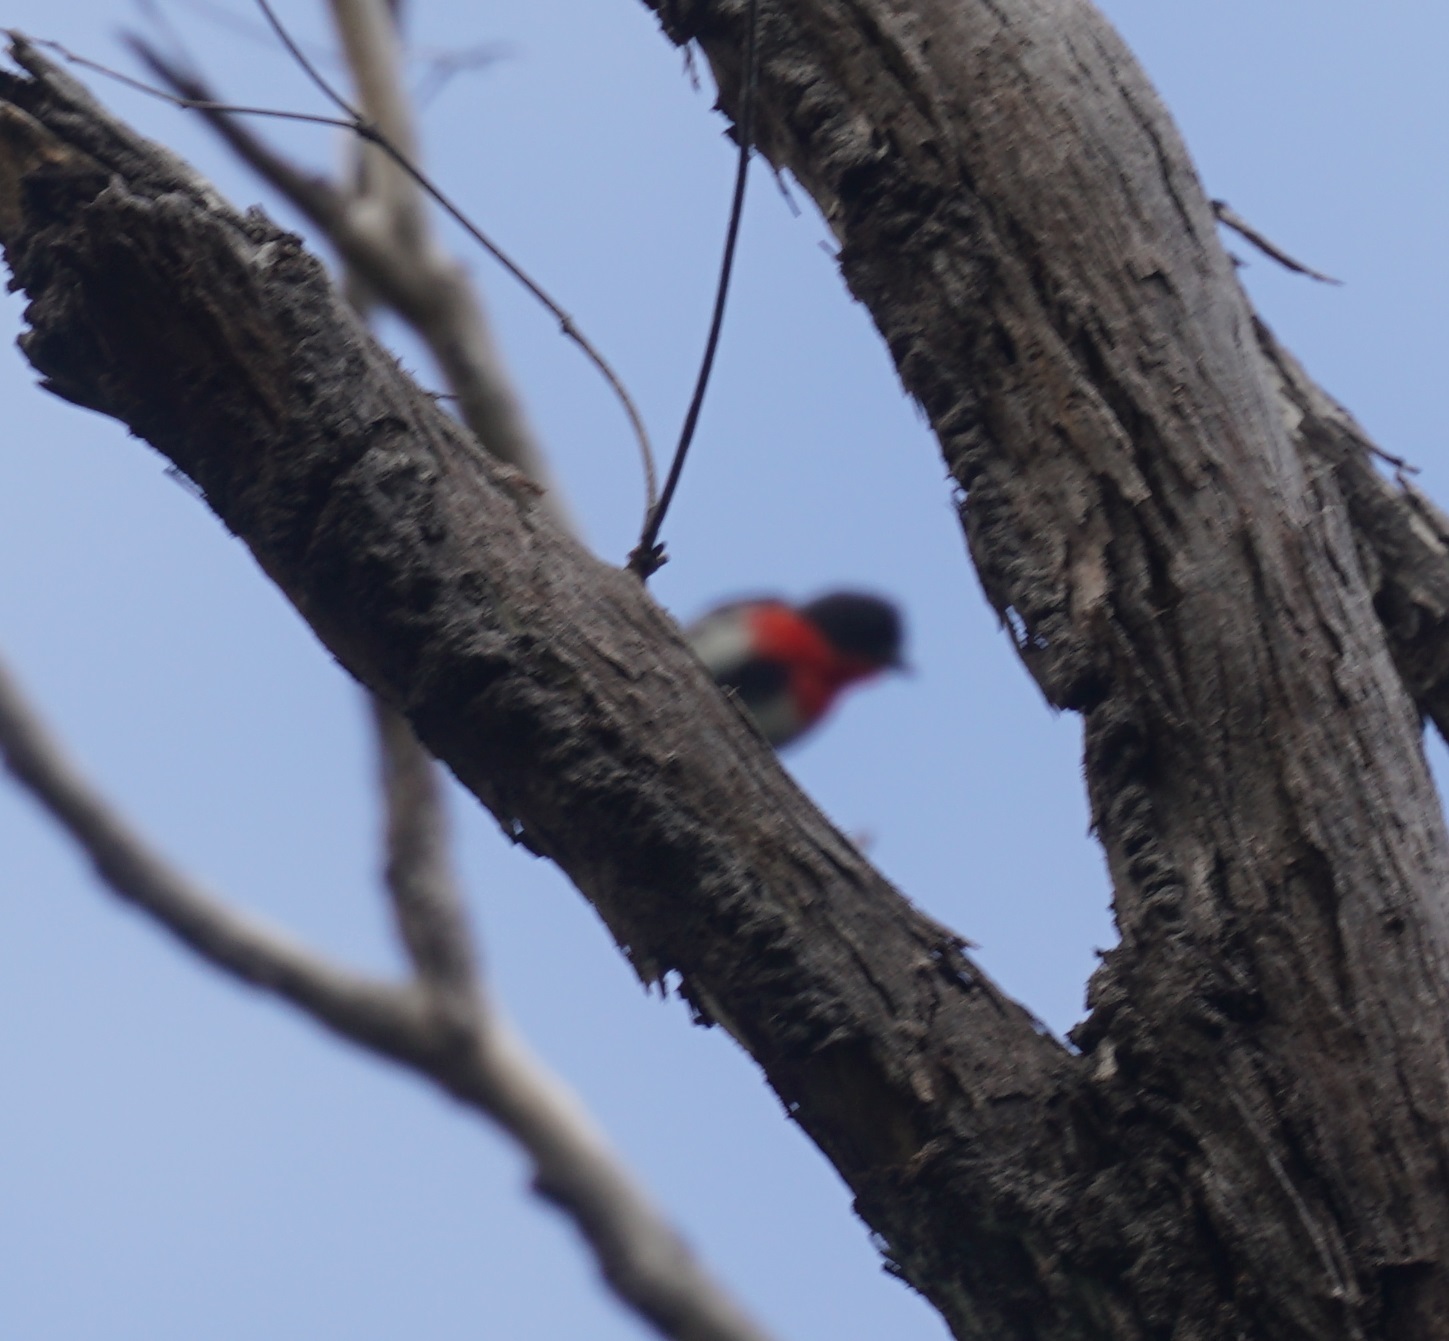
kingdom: Animalia
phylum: Chordata
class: Aves
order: Passeriformes
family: Dicaeidae
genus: Dicaeum
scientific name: Dicaeum hirundinaceum
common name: Mistletoebird
